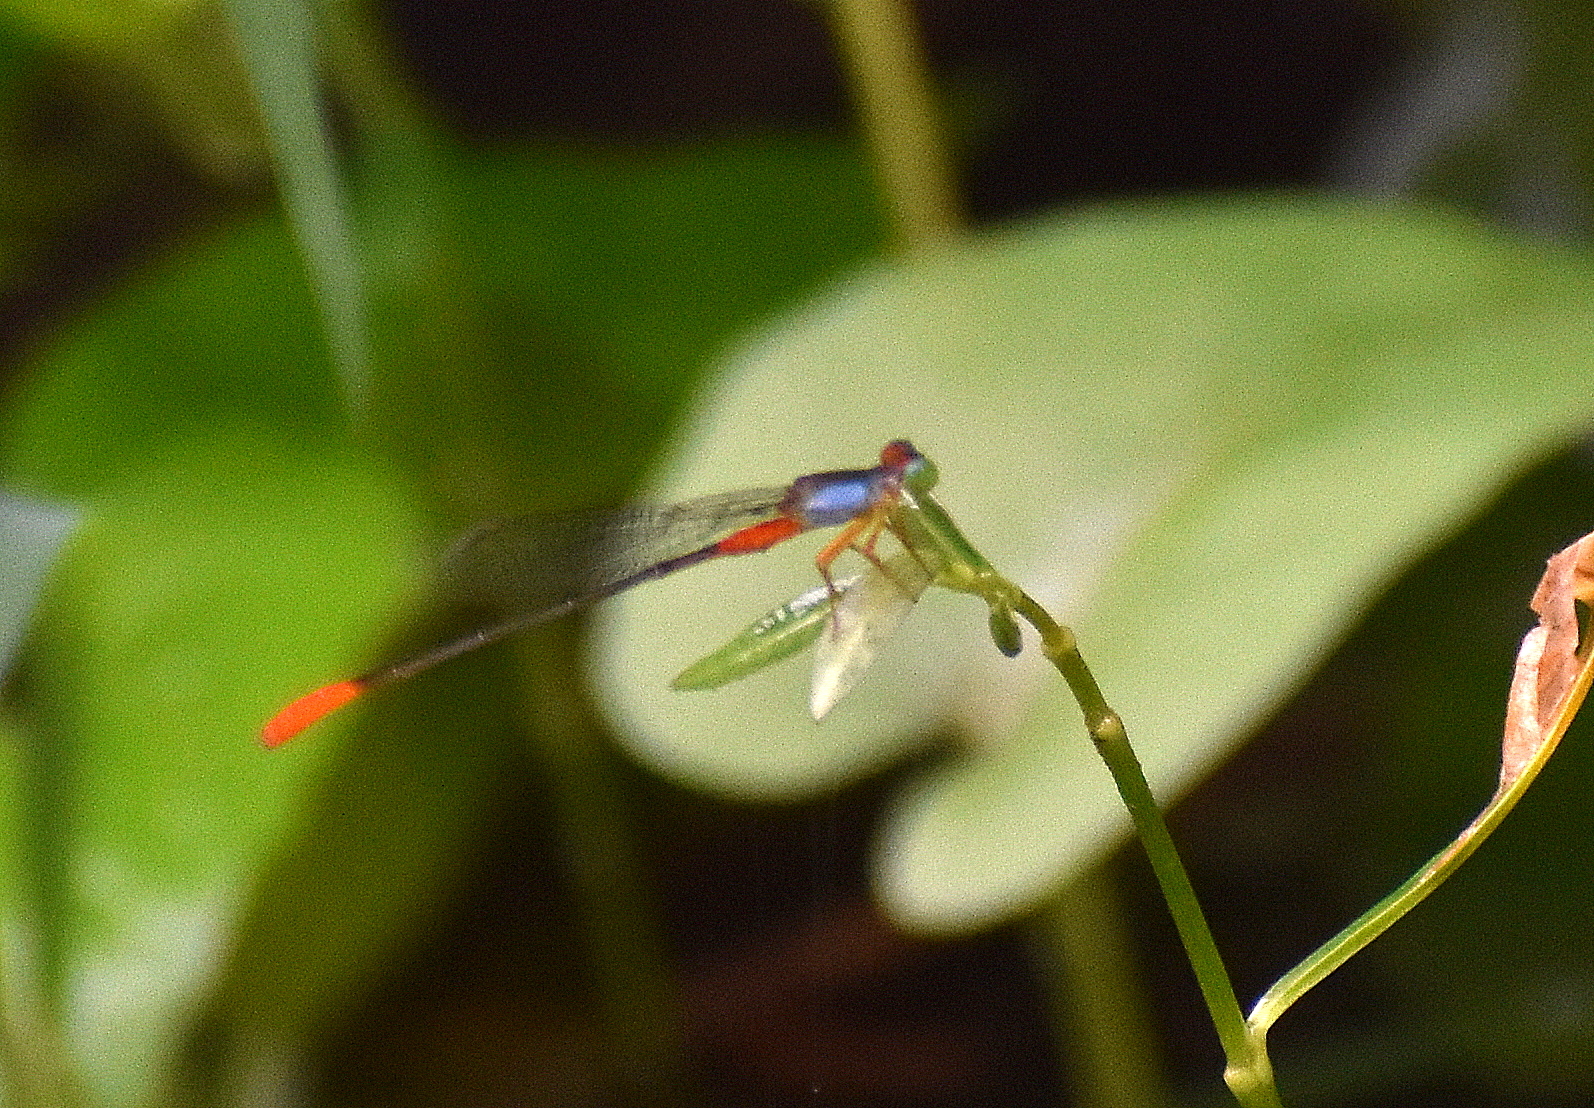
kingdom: Animalia
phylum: Arthropoda
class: Insecta
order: Odonata
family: Coenagrionidae
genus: Ceriagrion
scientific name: Ceriagrion cerinorubellum
